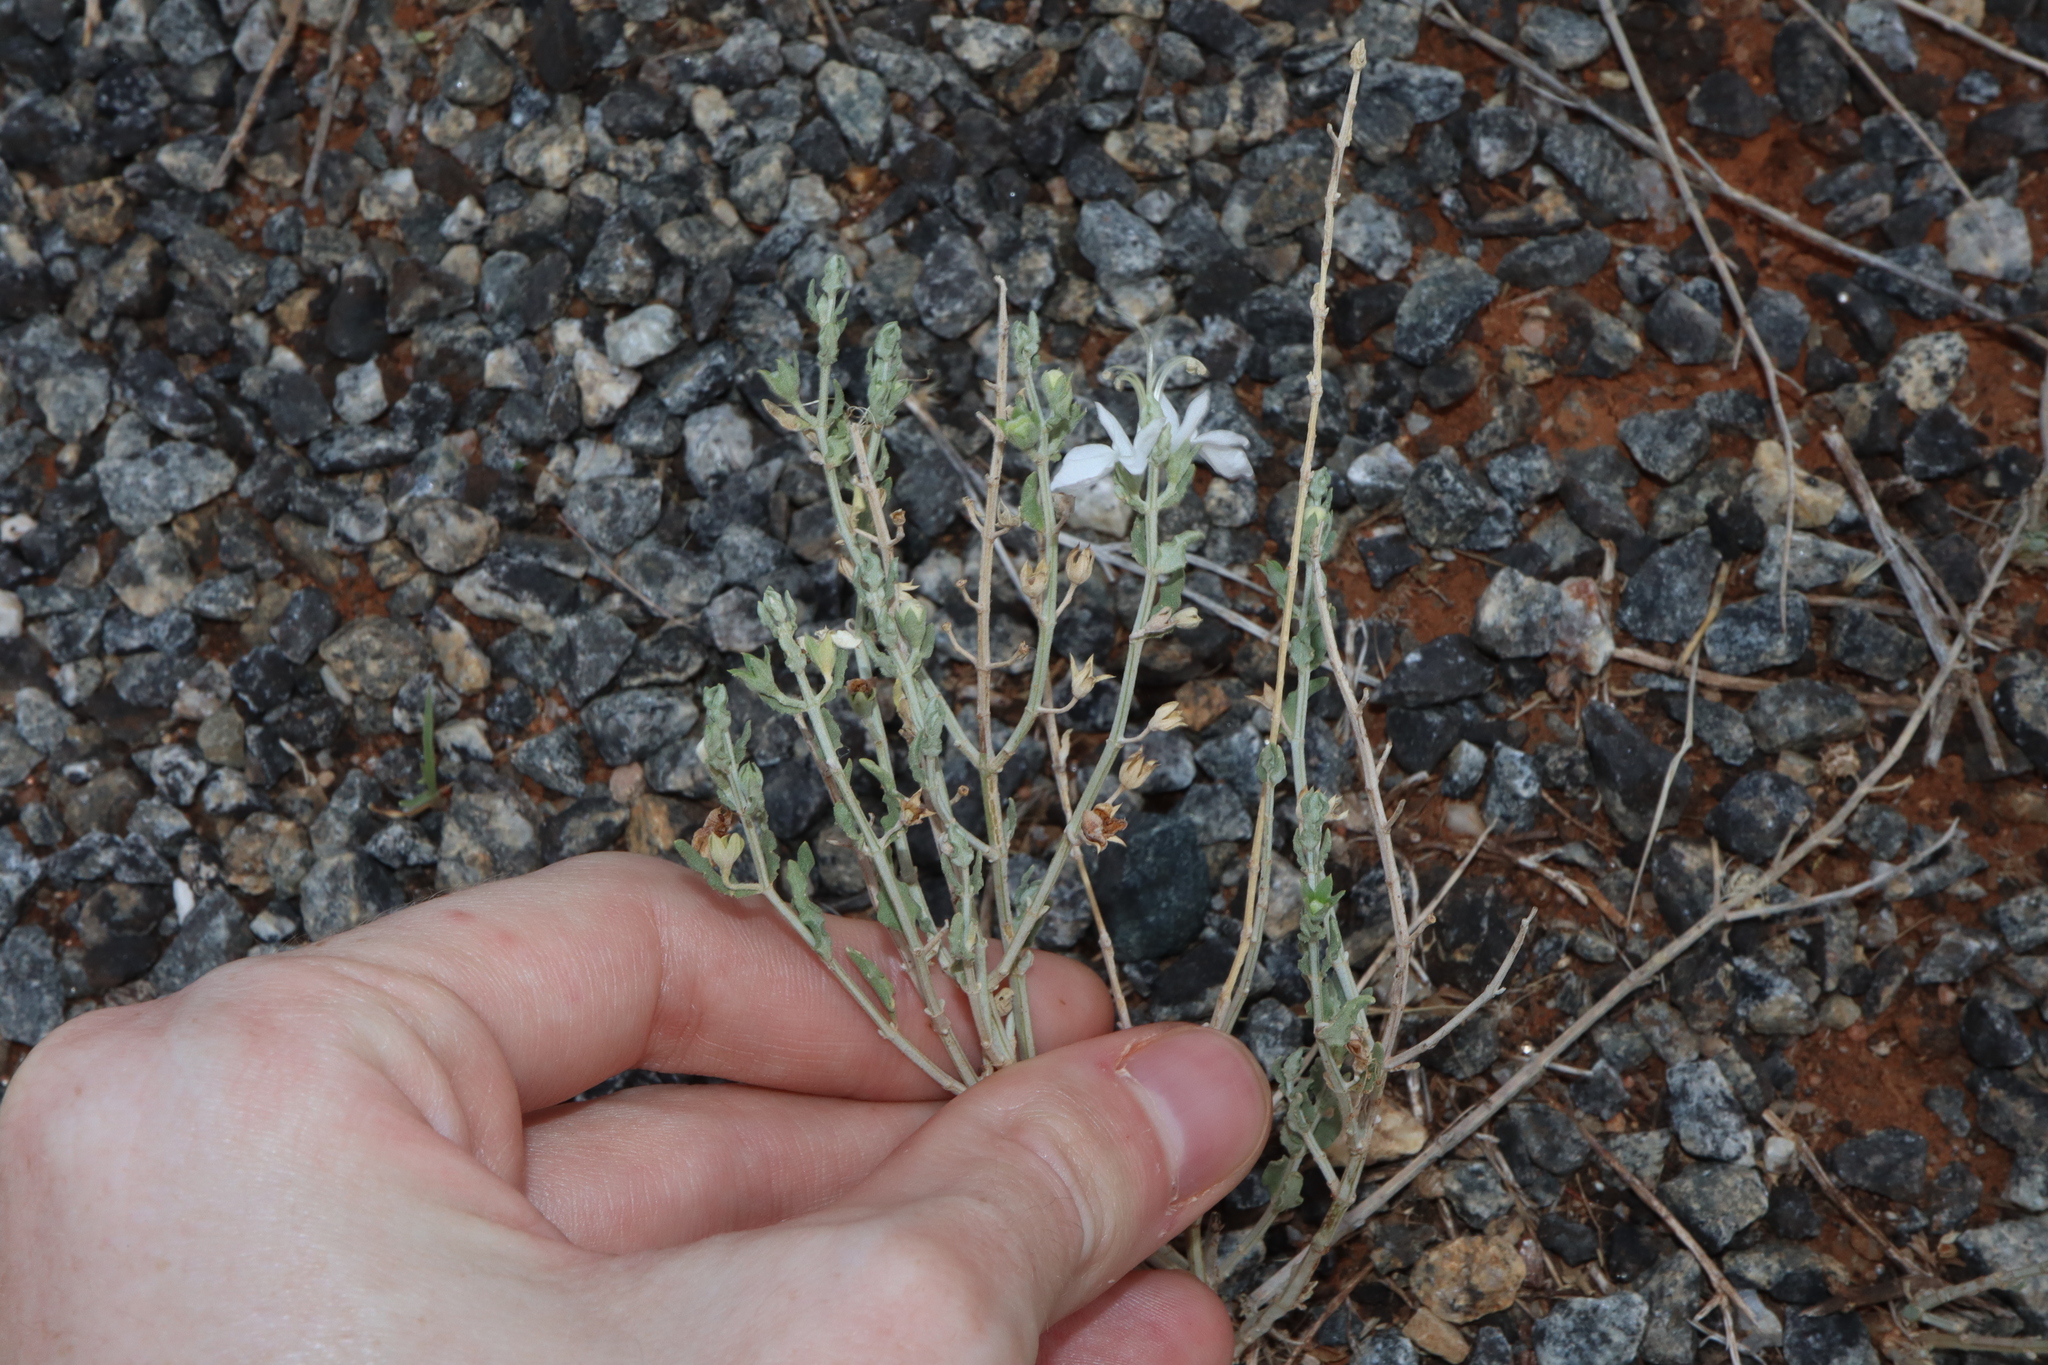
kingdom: Plantae
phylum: Tracheophyta
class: Magnoliopsida
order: Lamiales
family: Lamiaceae
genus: Teucrium
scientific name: Teucrium racemosum
